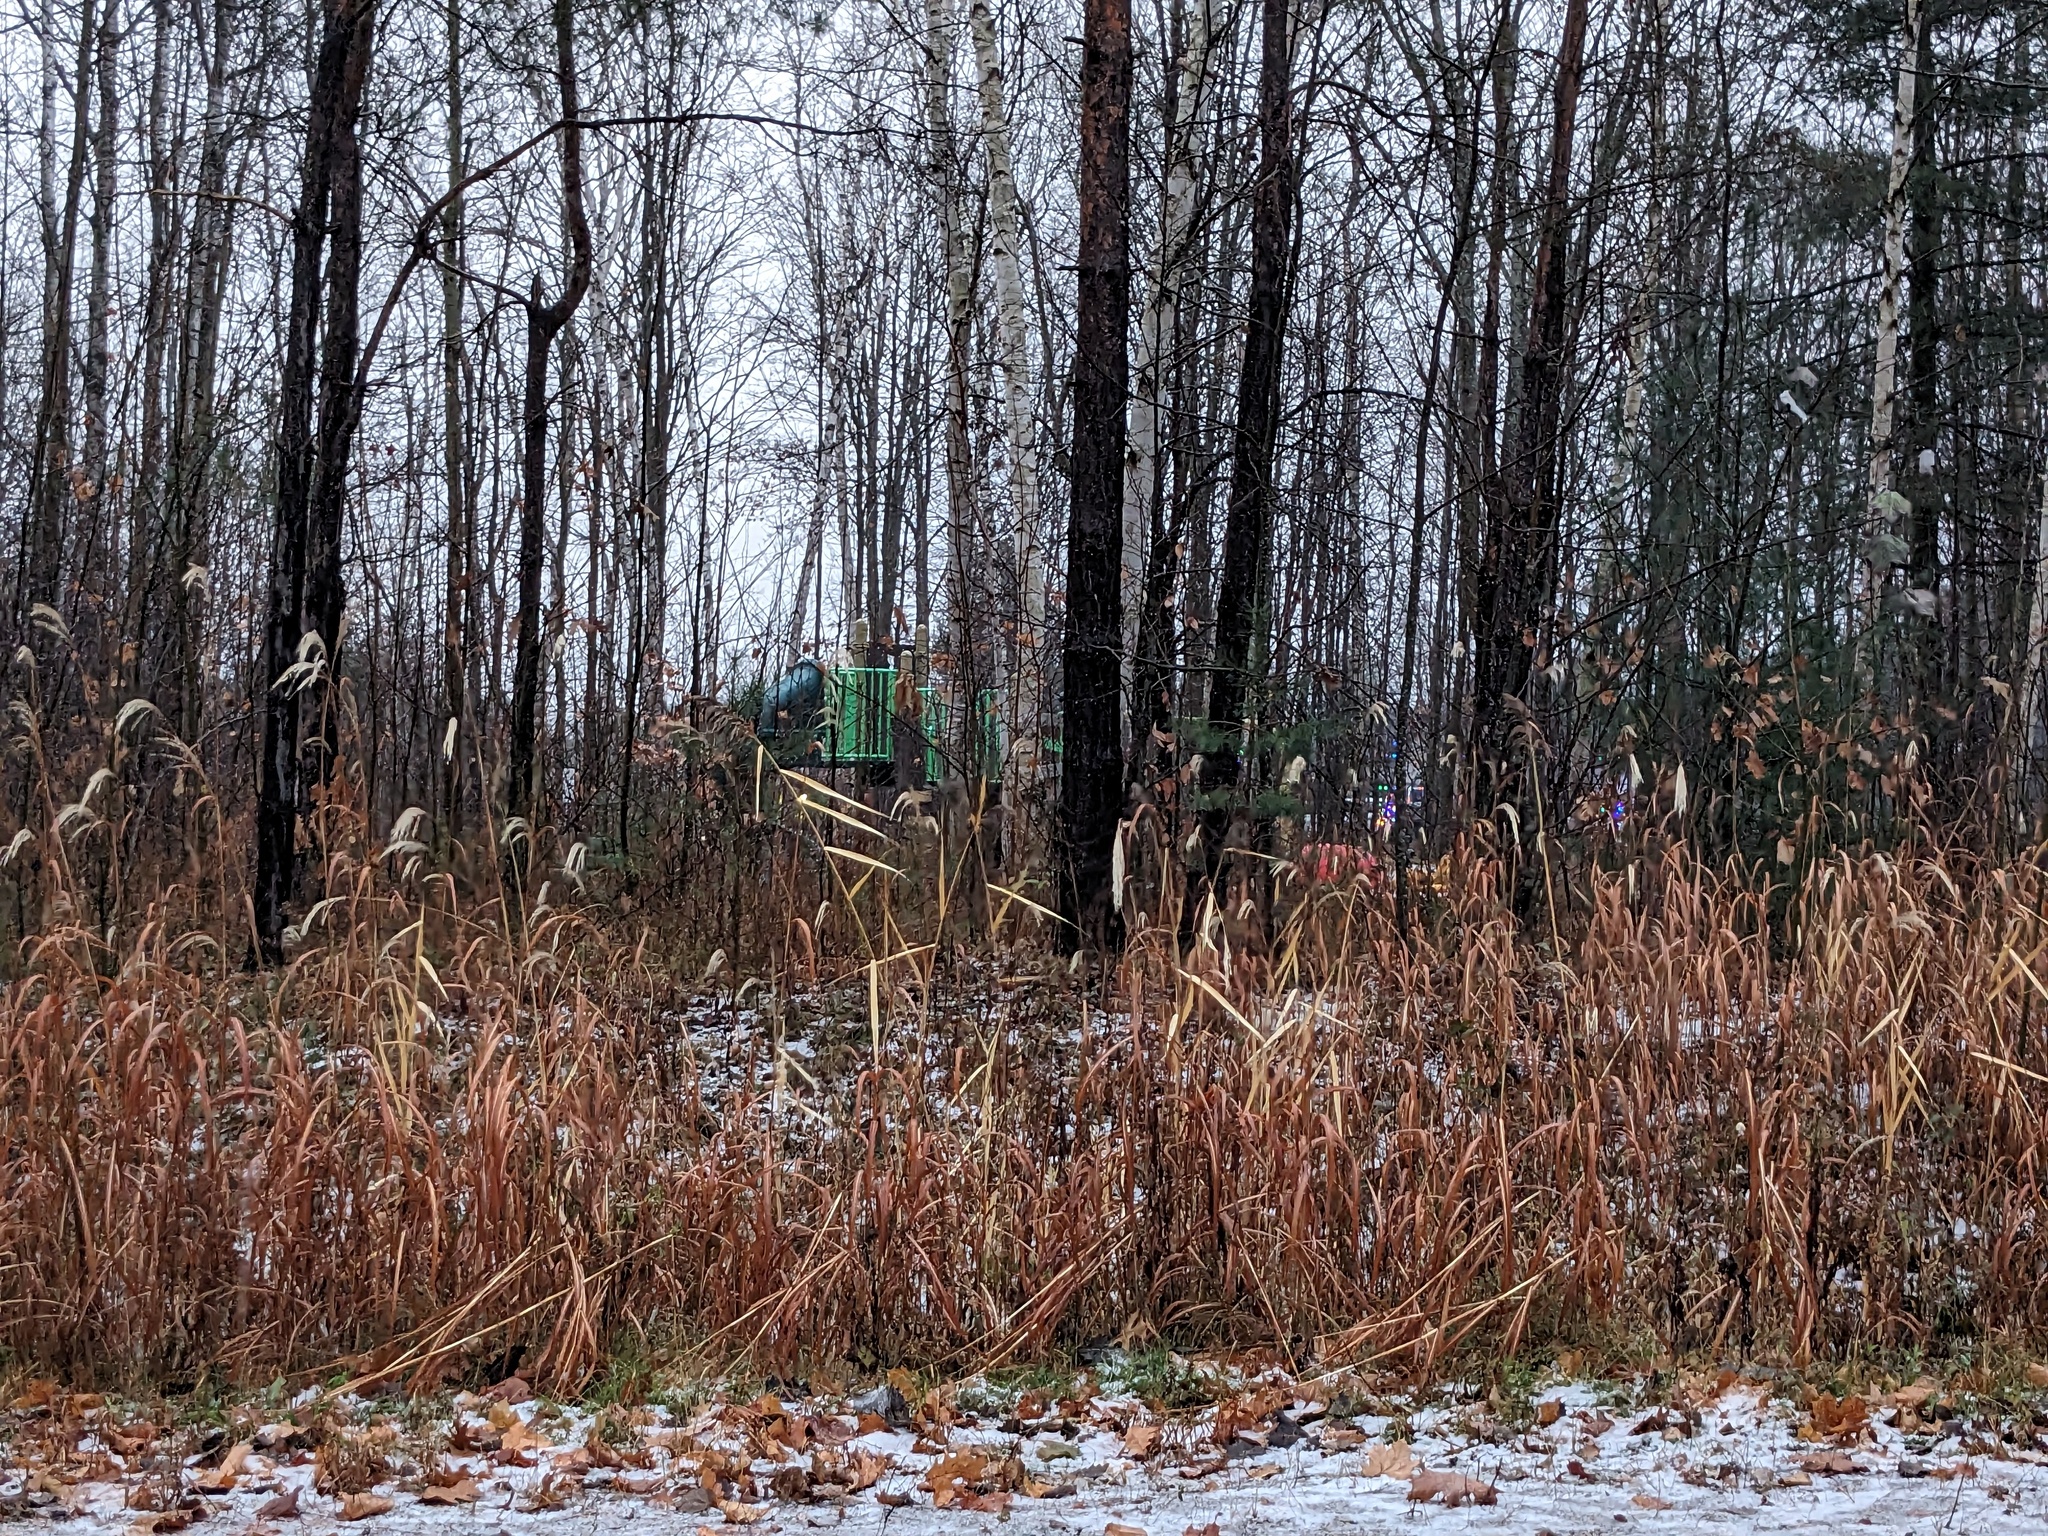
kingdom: Plantae
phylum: Tracheophyta
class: Liliopsida
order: Poales
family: Poaceae
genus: Phragmites
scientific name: Phragmites australis
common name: Common reed
